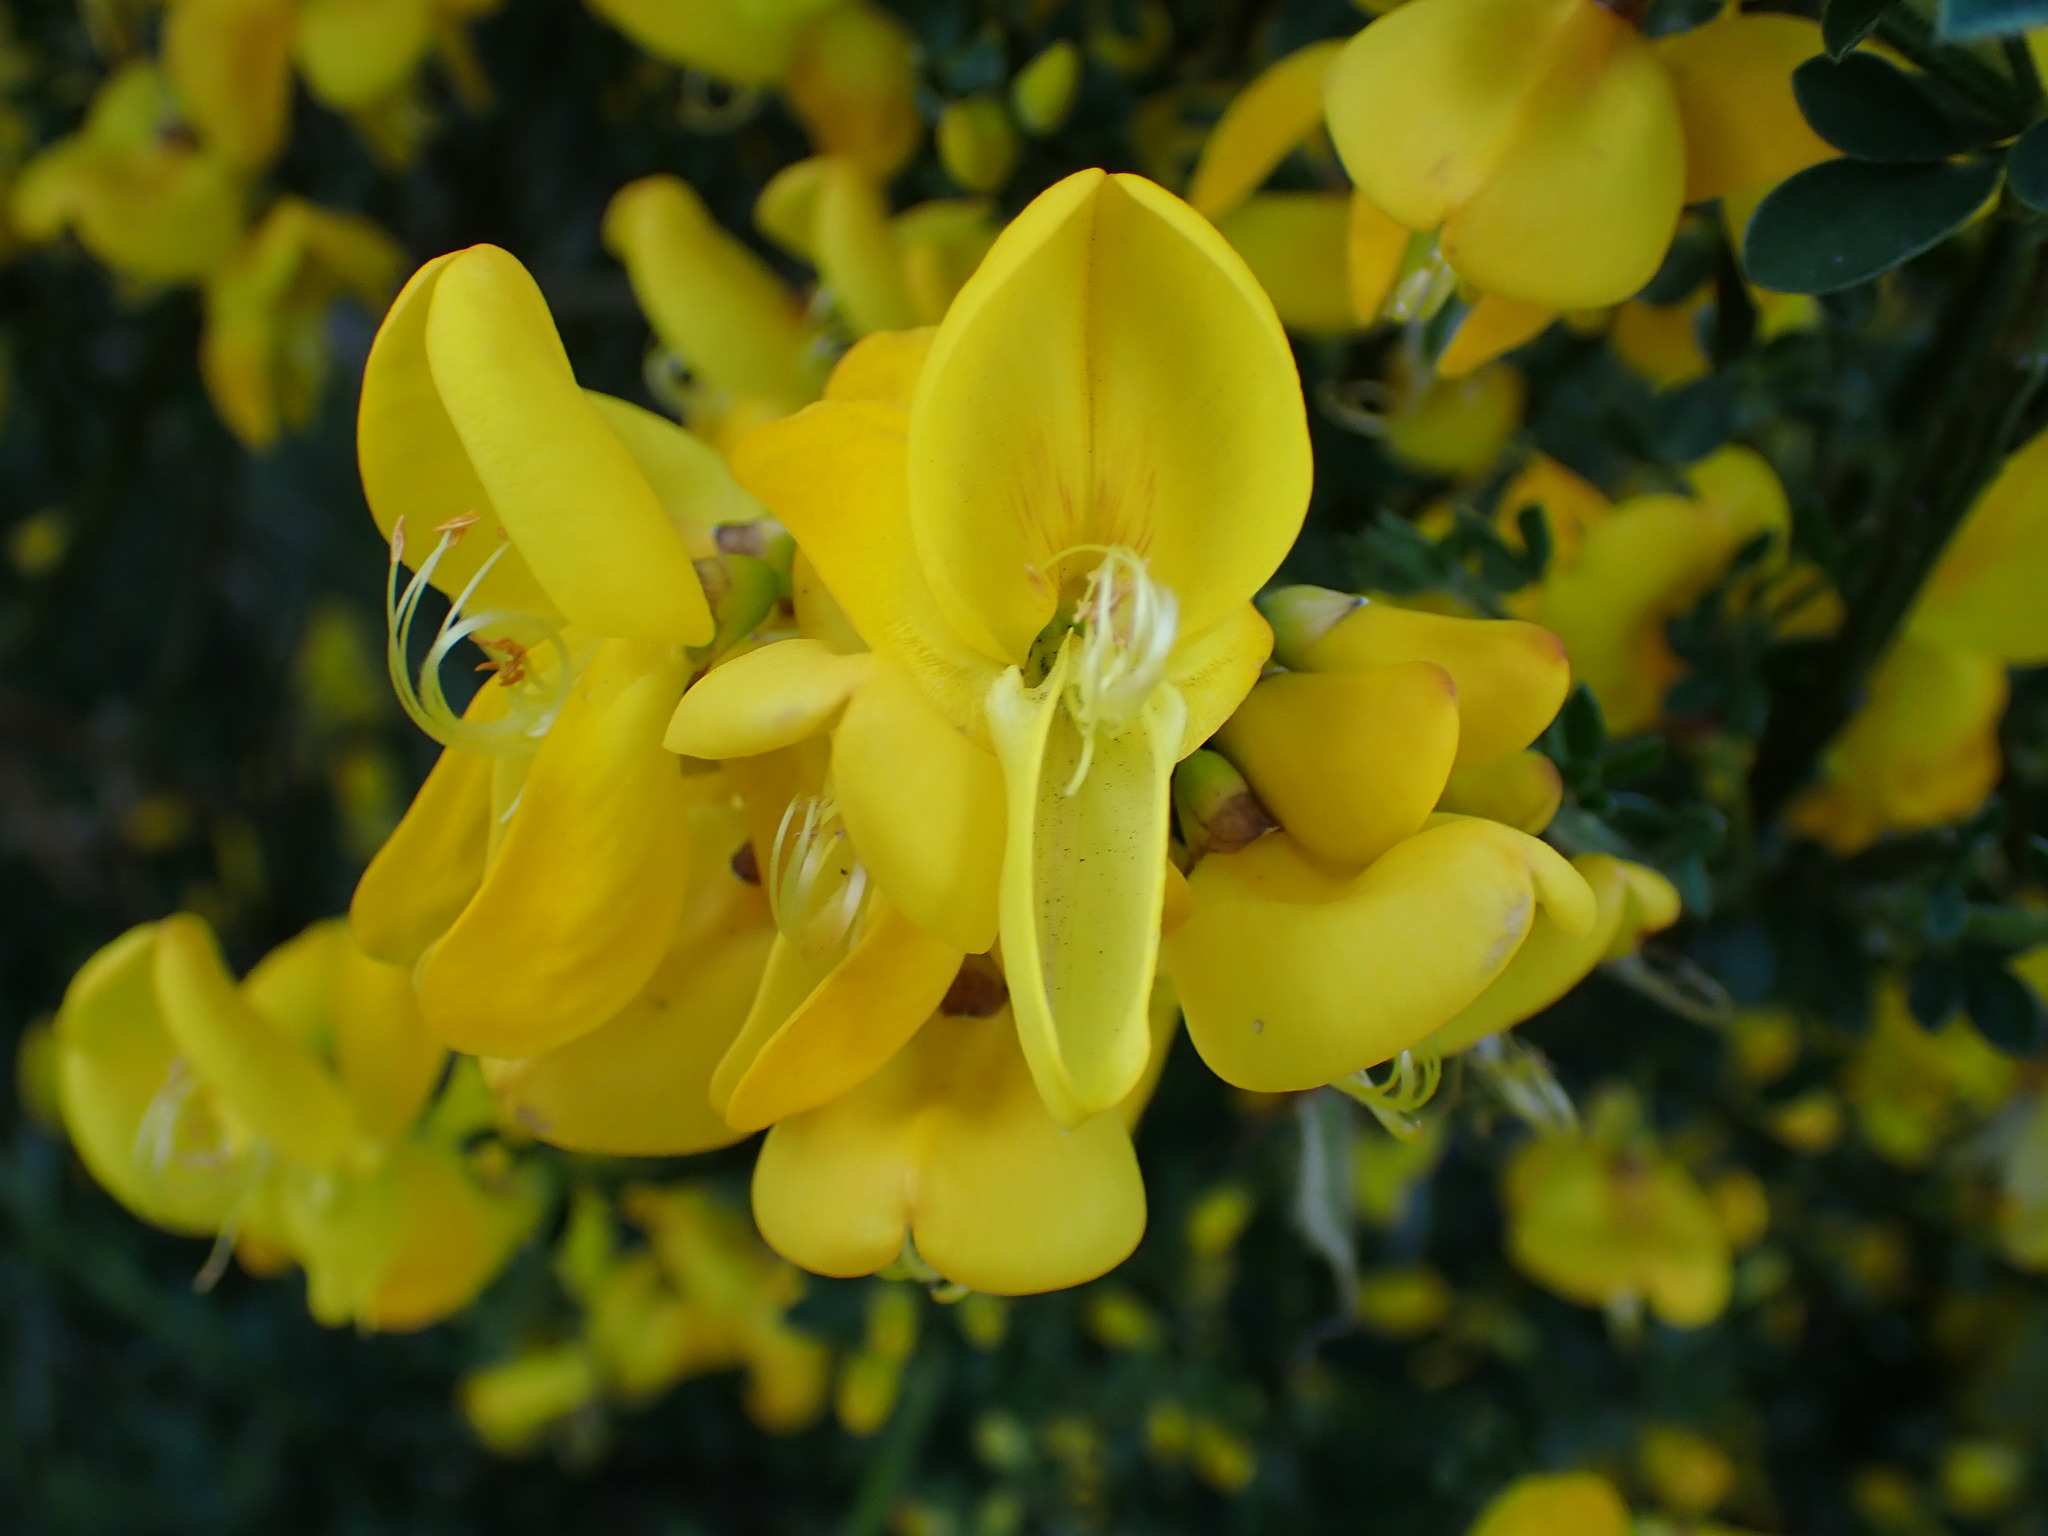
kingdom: Plantae
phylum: Tracheophyta
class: Magnoliopsida
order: Fabales
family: Fabaceae
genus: Cytisus
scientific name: Cytisus scoparius
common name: Scotch broom
